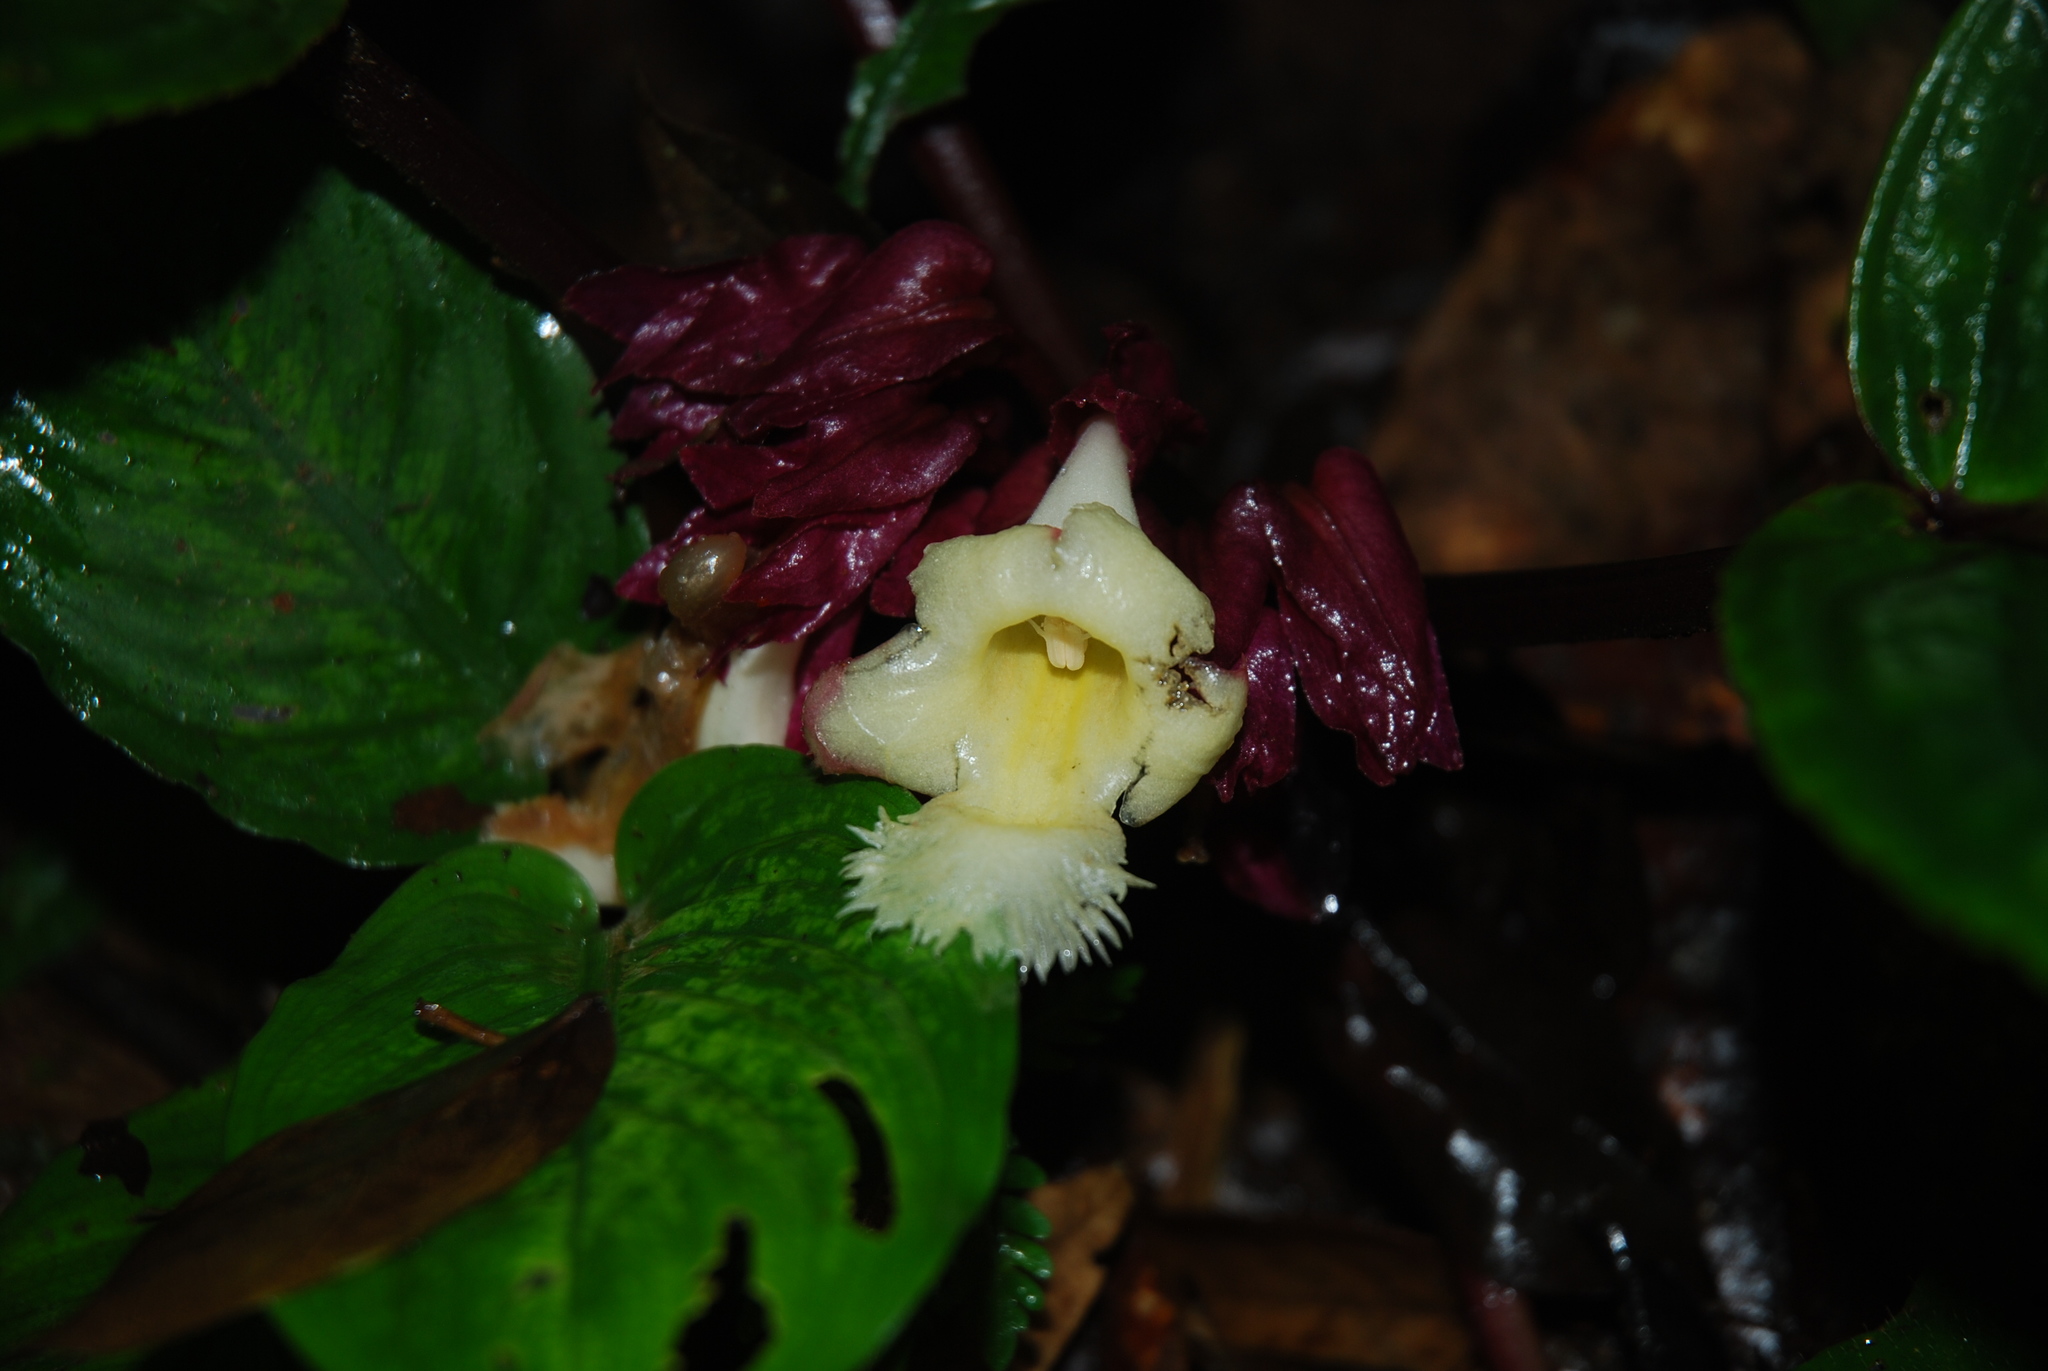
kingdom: Plantae
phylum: Tracheophyta
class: Magnoliopsida
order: Lamiales
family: Gesneriaceae
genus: Drymonia
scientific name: Drymonia turrialvae
